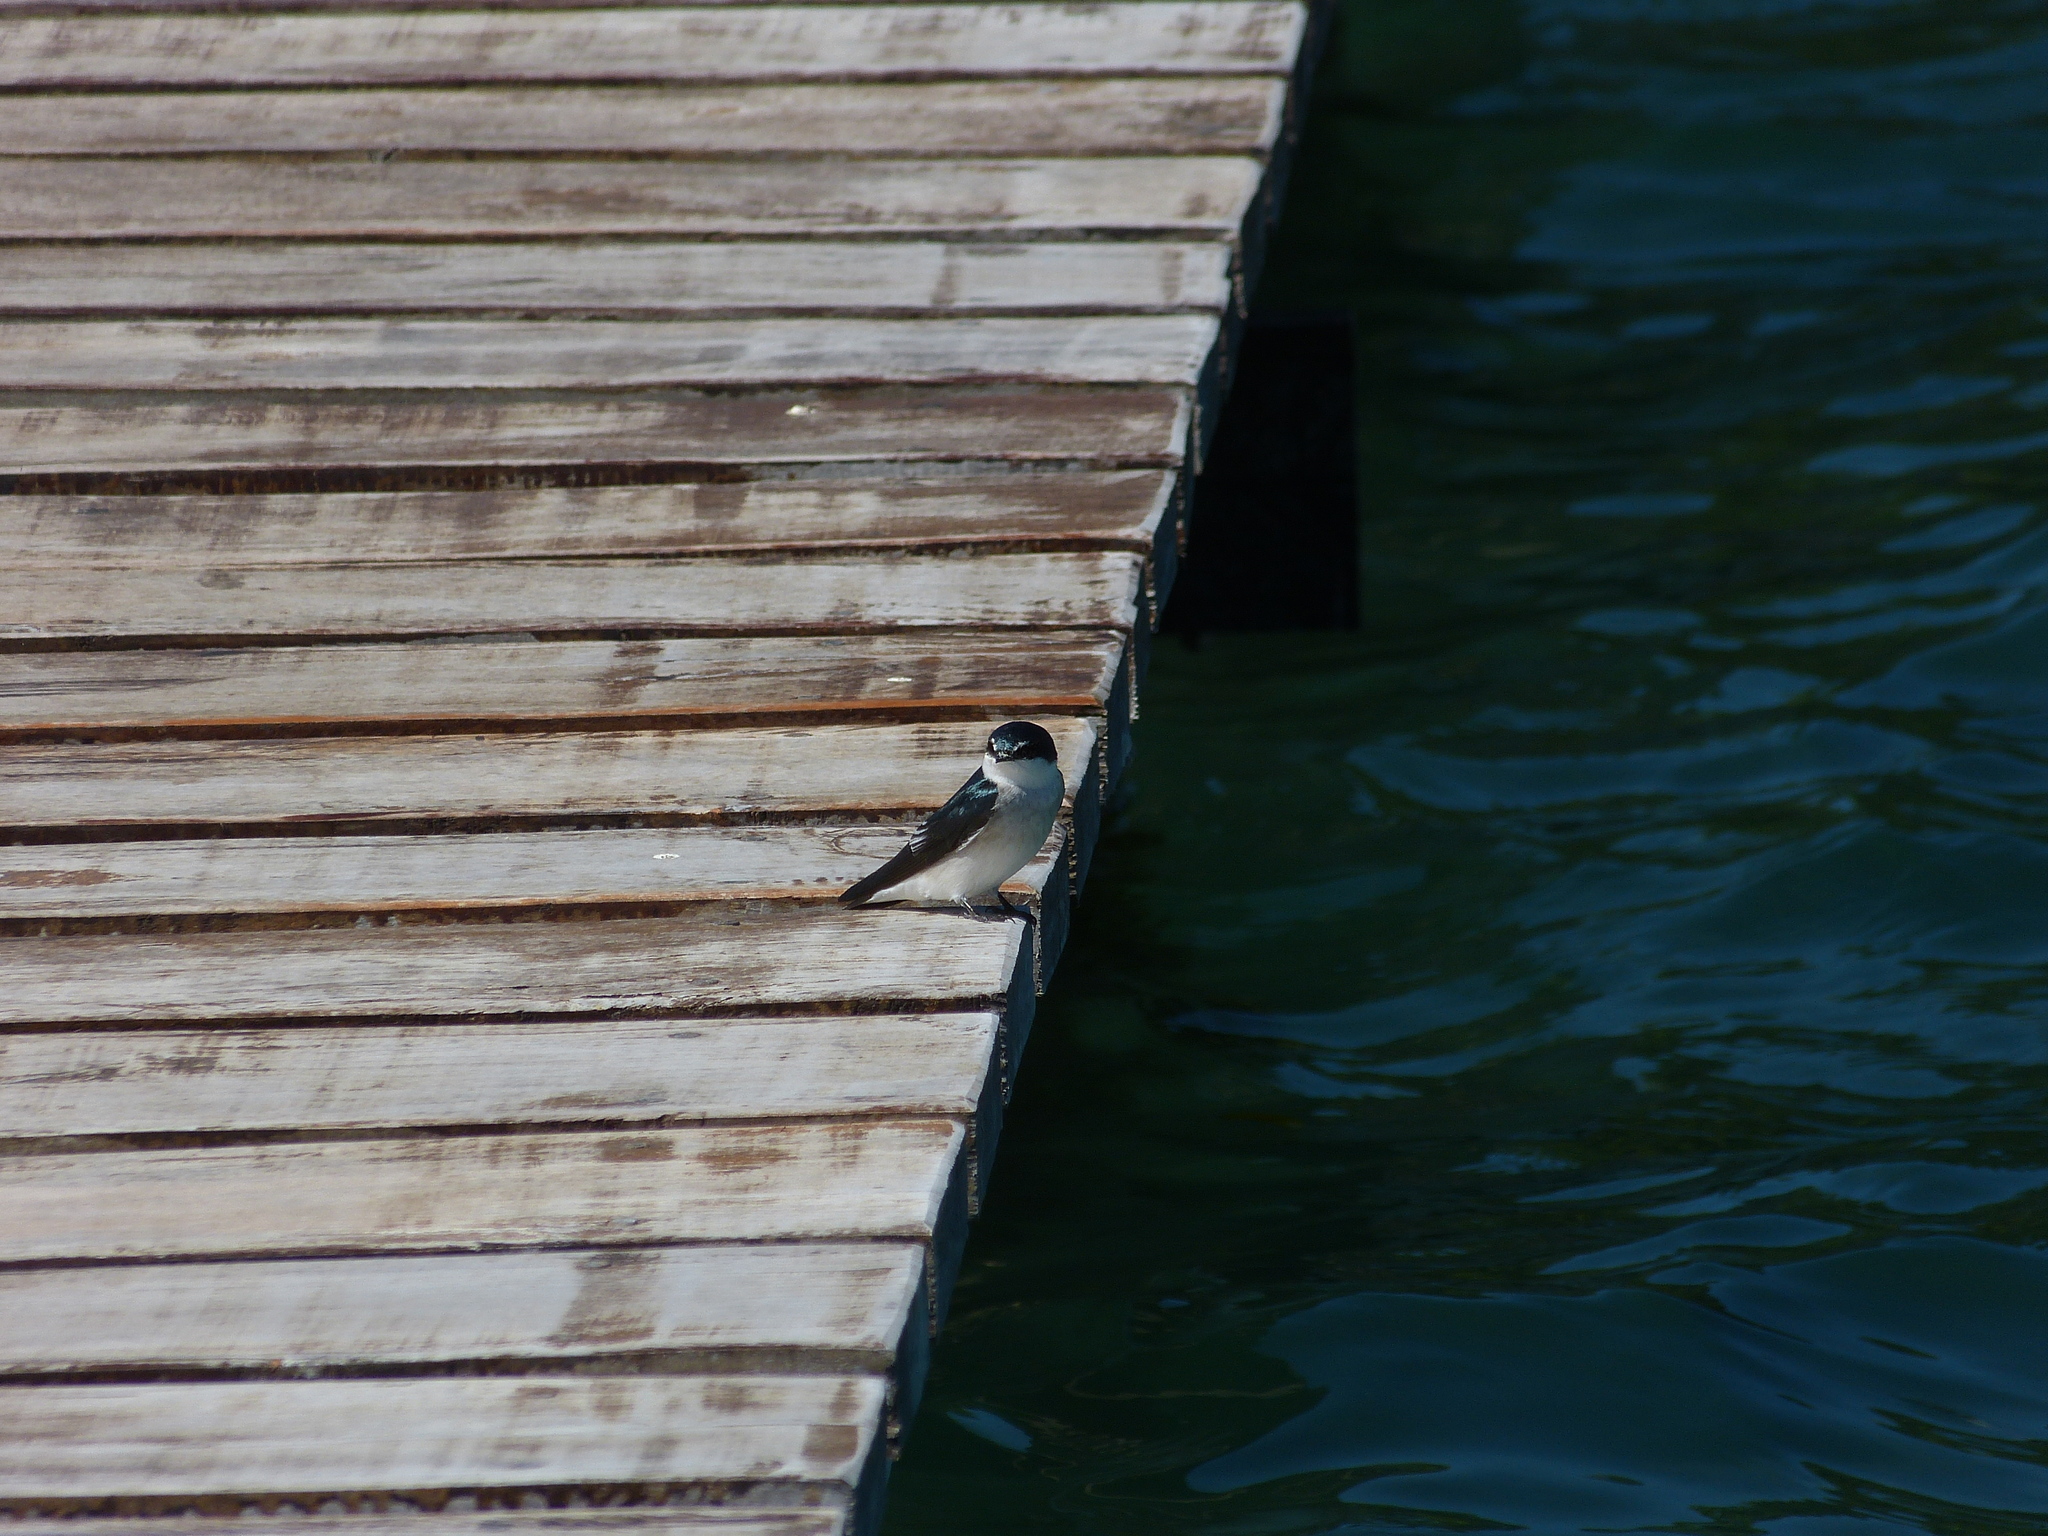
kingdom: Animalia
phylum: Chordata
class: Aves
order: Passeriformes
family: Hirundinidae
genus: Tachycineta
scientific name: Tachycineta albilinea
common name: Mangrove swallow
